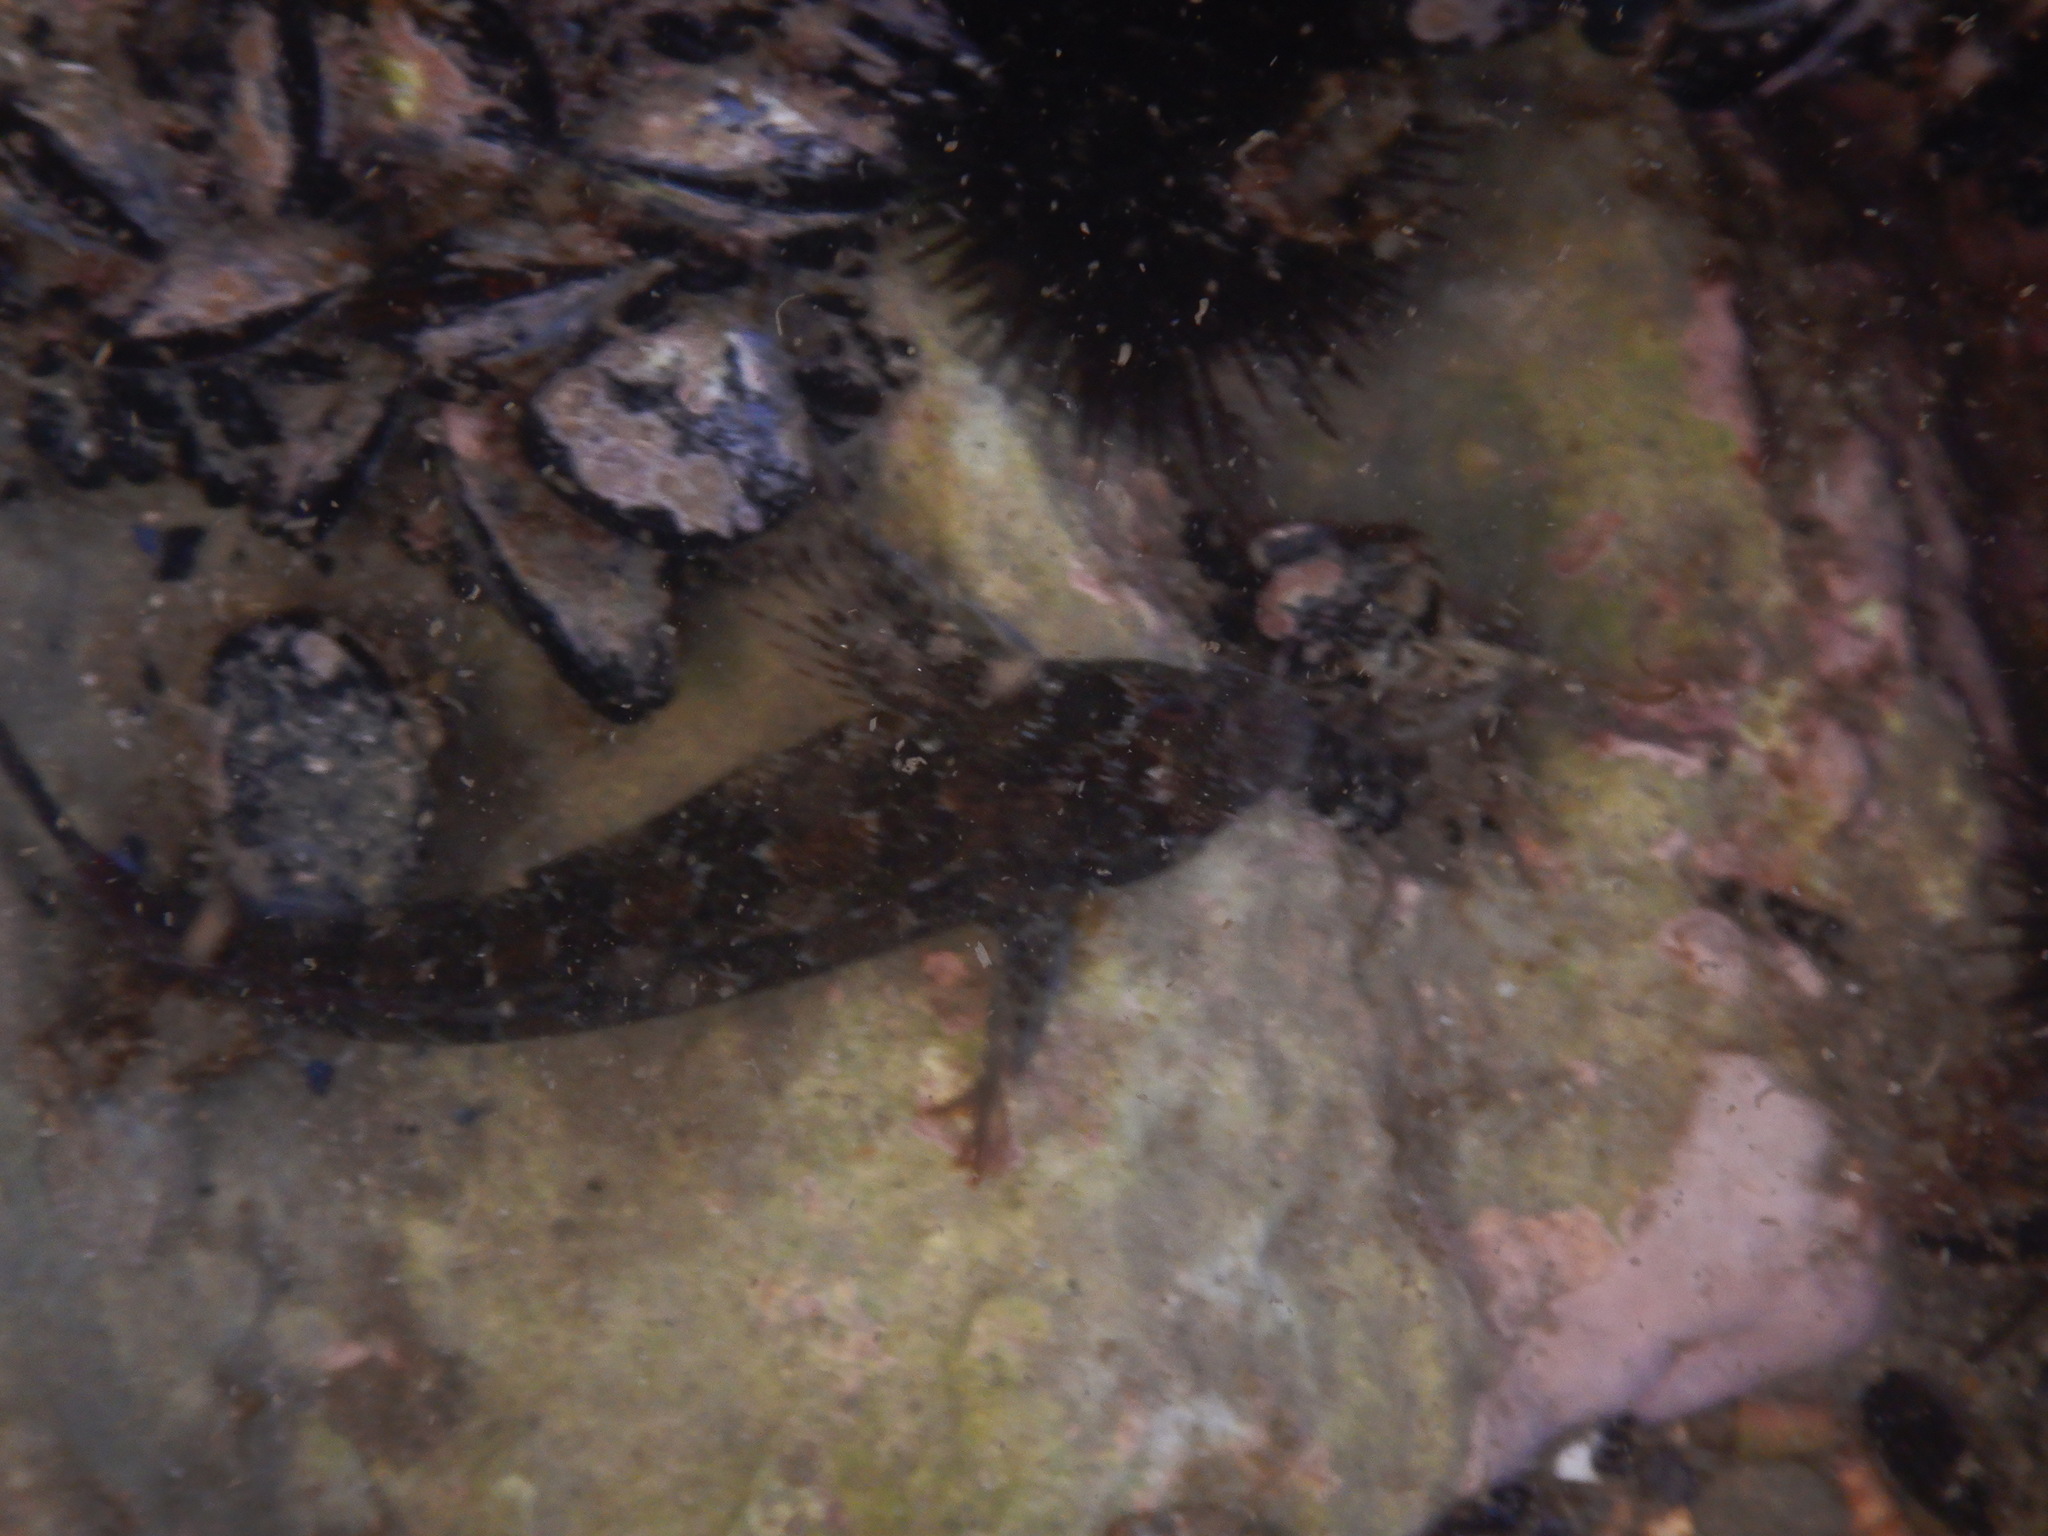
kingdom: Animalia
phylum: Chordata
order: Perciformes
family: Blenniidae
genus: Parablennius
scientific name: Parablennius gattorugine
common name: Tompot blenny
